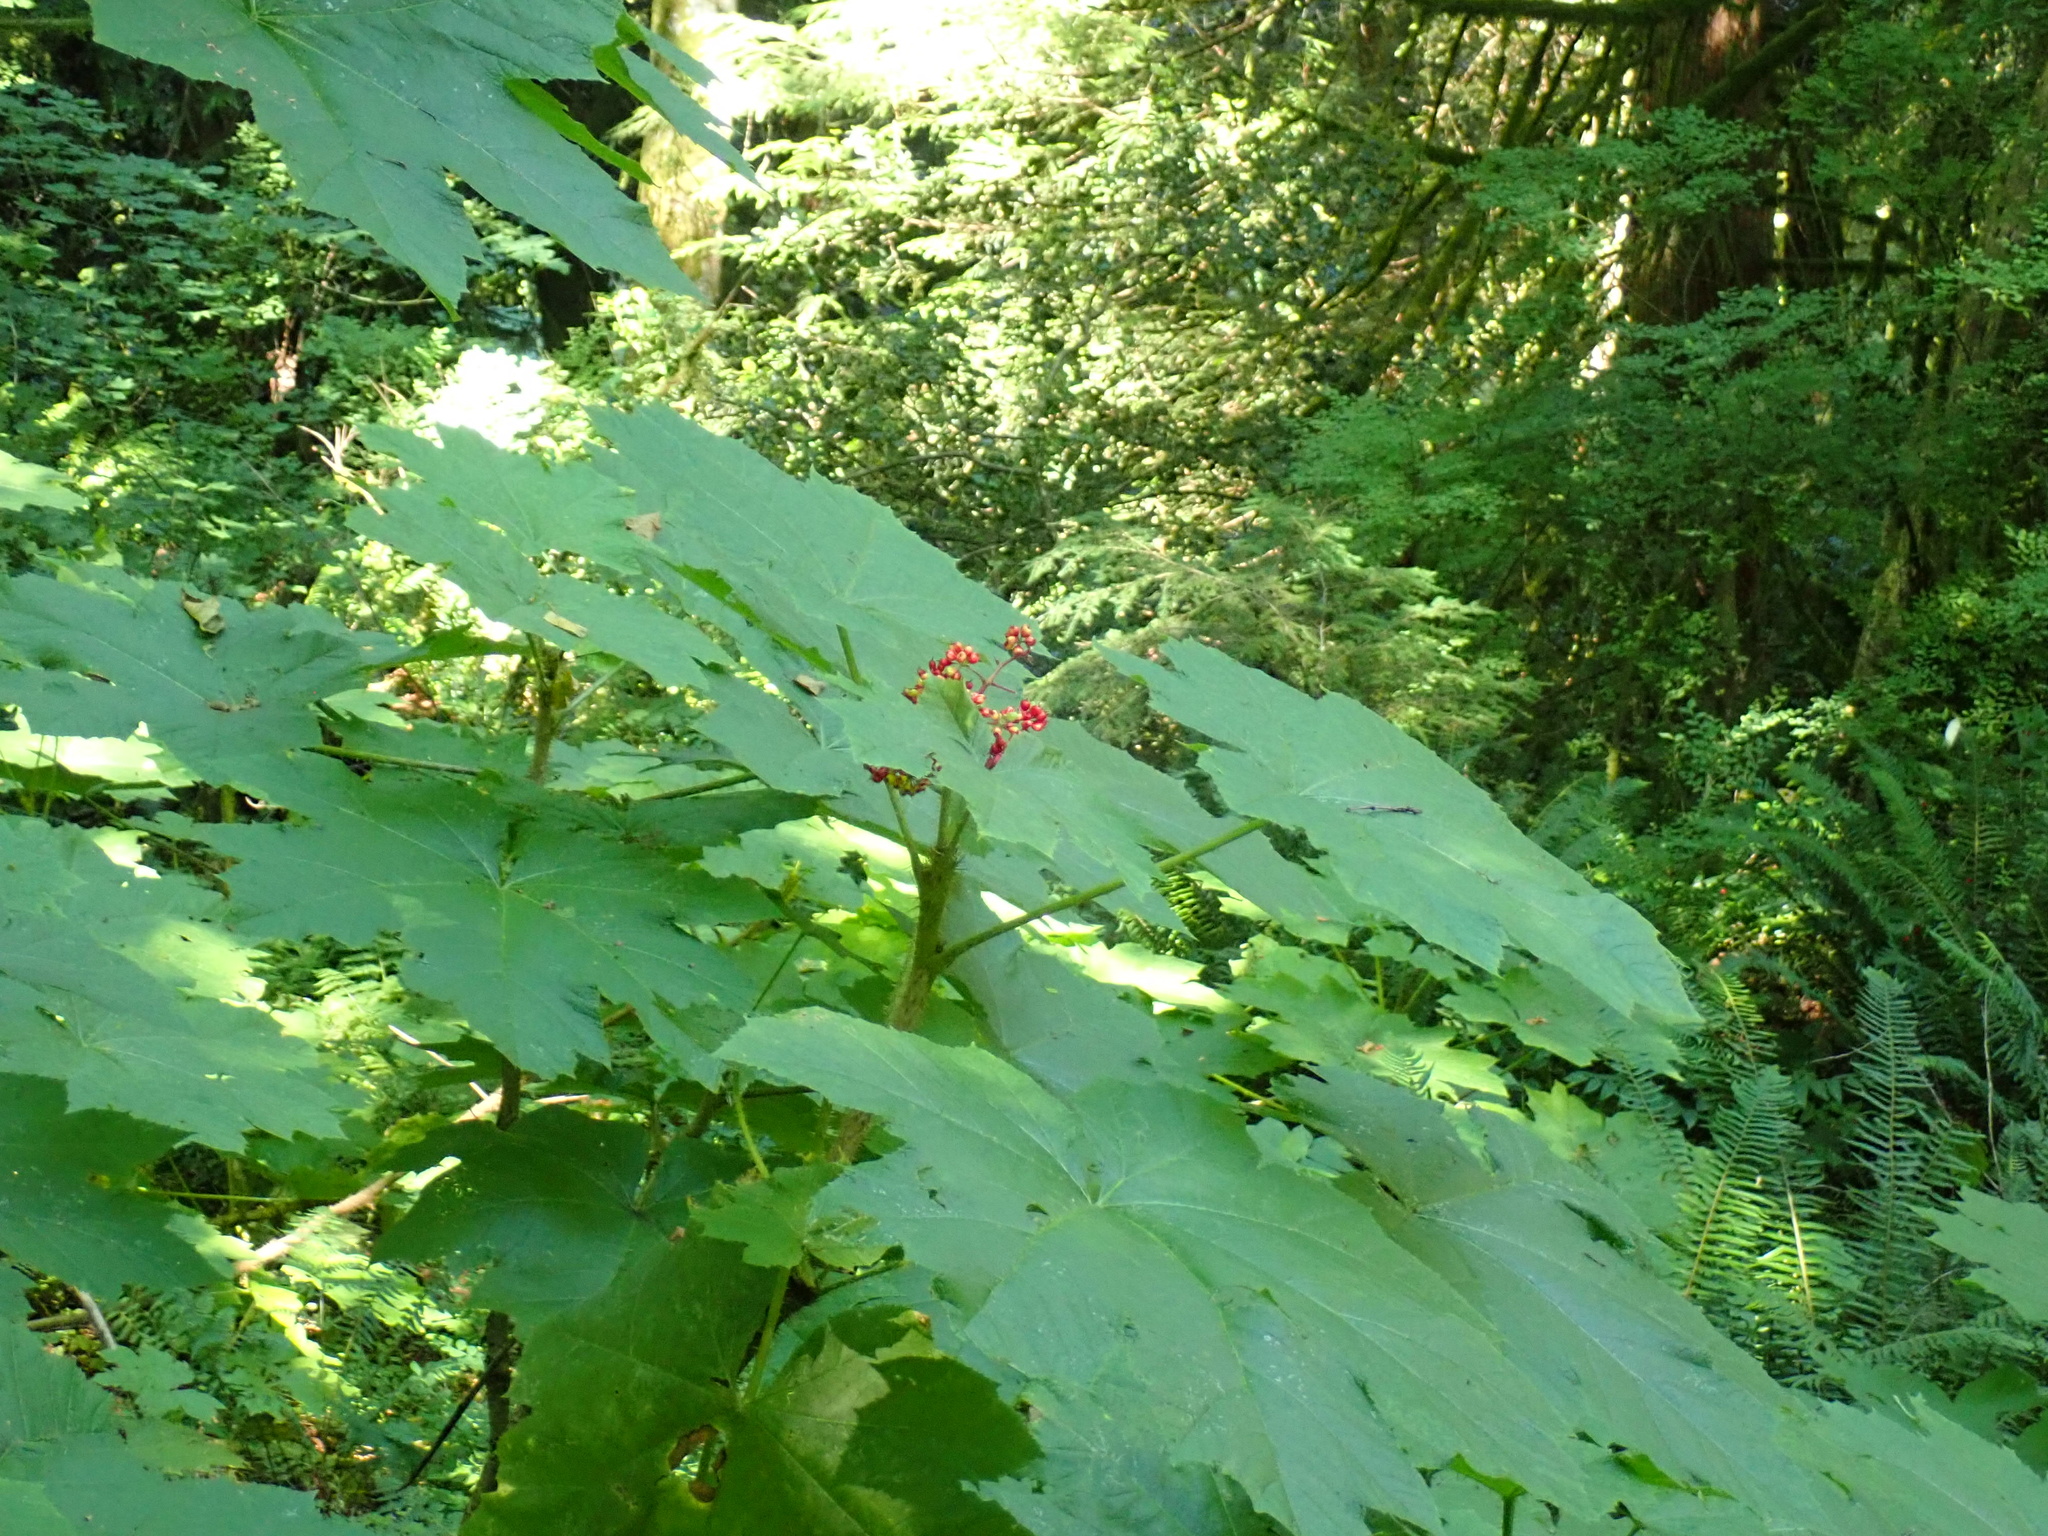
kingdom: Plantae
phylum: Tracheophyta
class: Magnoliopsida
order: Apiales
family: Araliaceae
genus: Oplopanax
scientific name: Oplopanax horridus
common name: Devil's walking-stick
